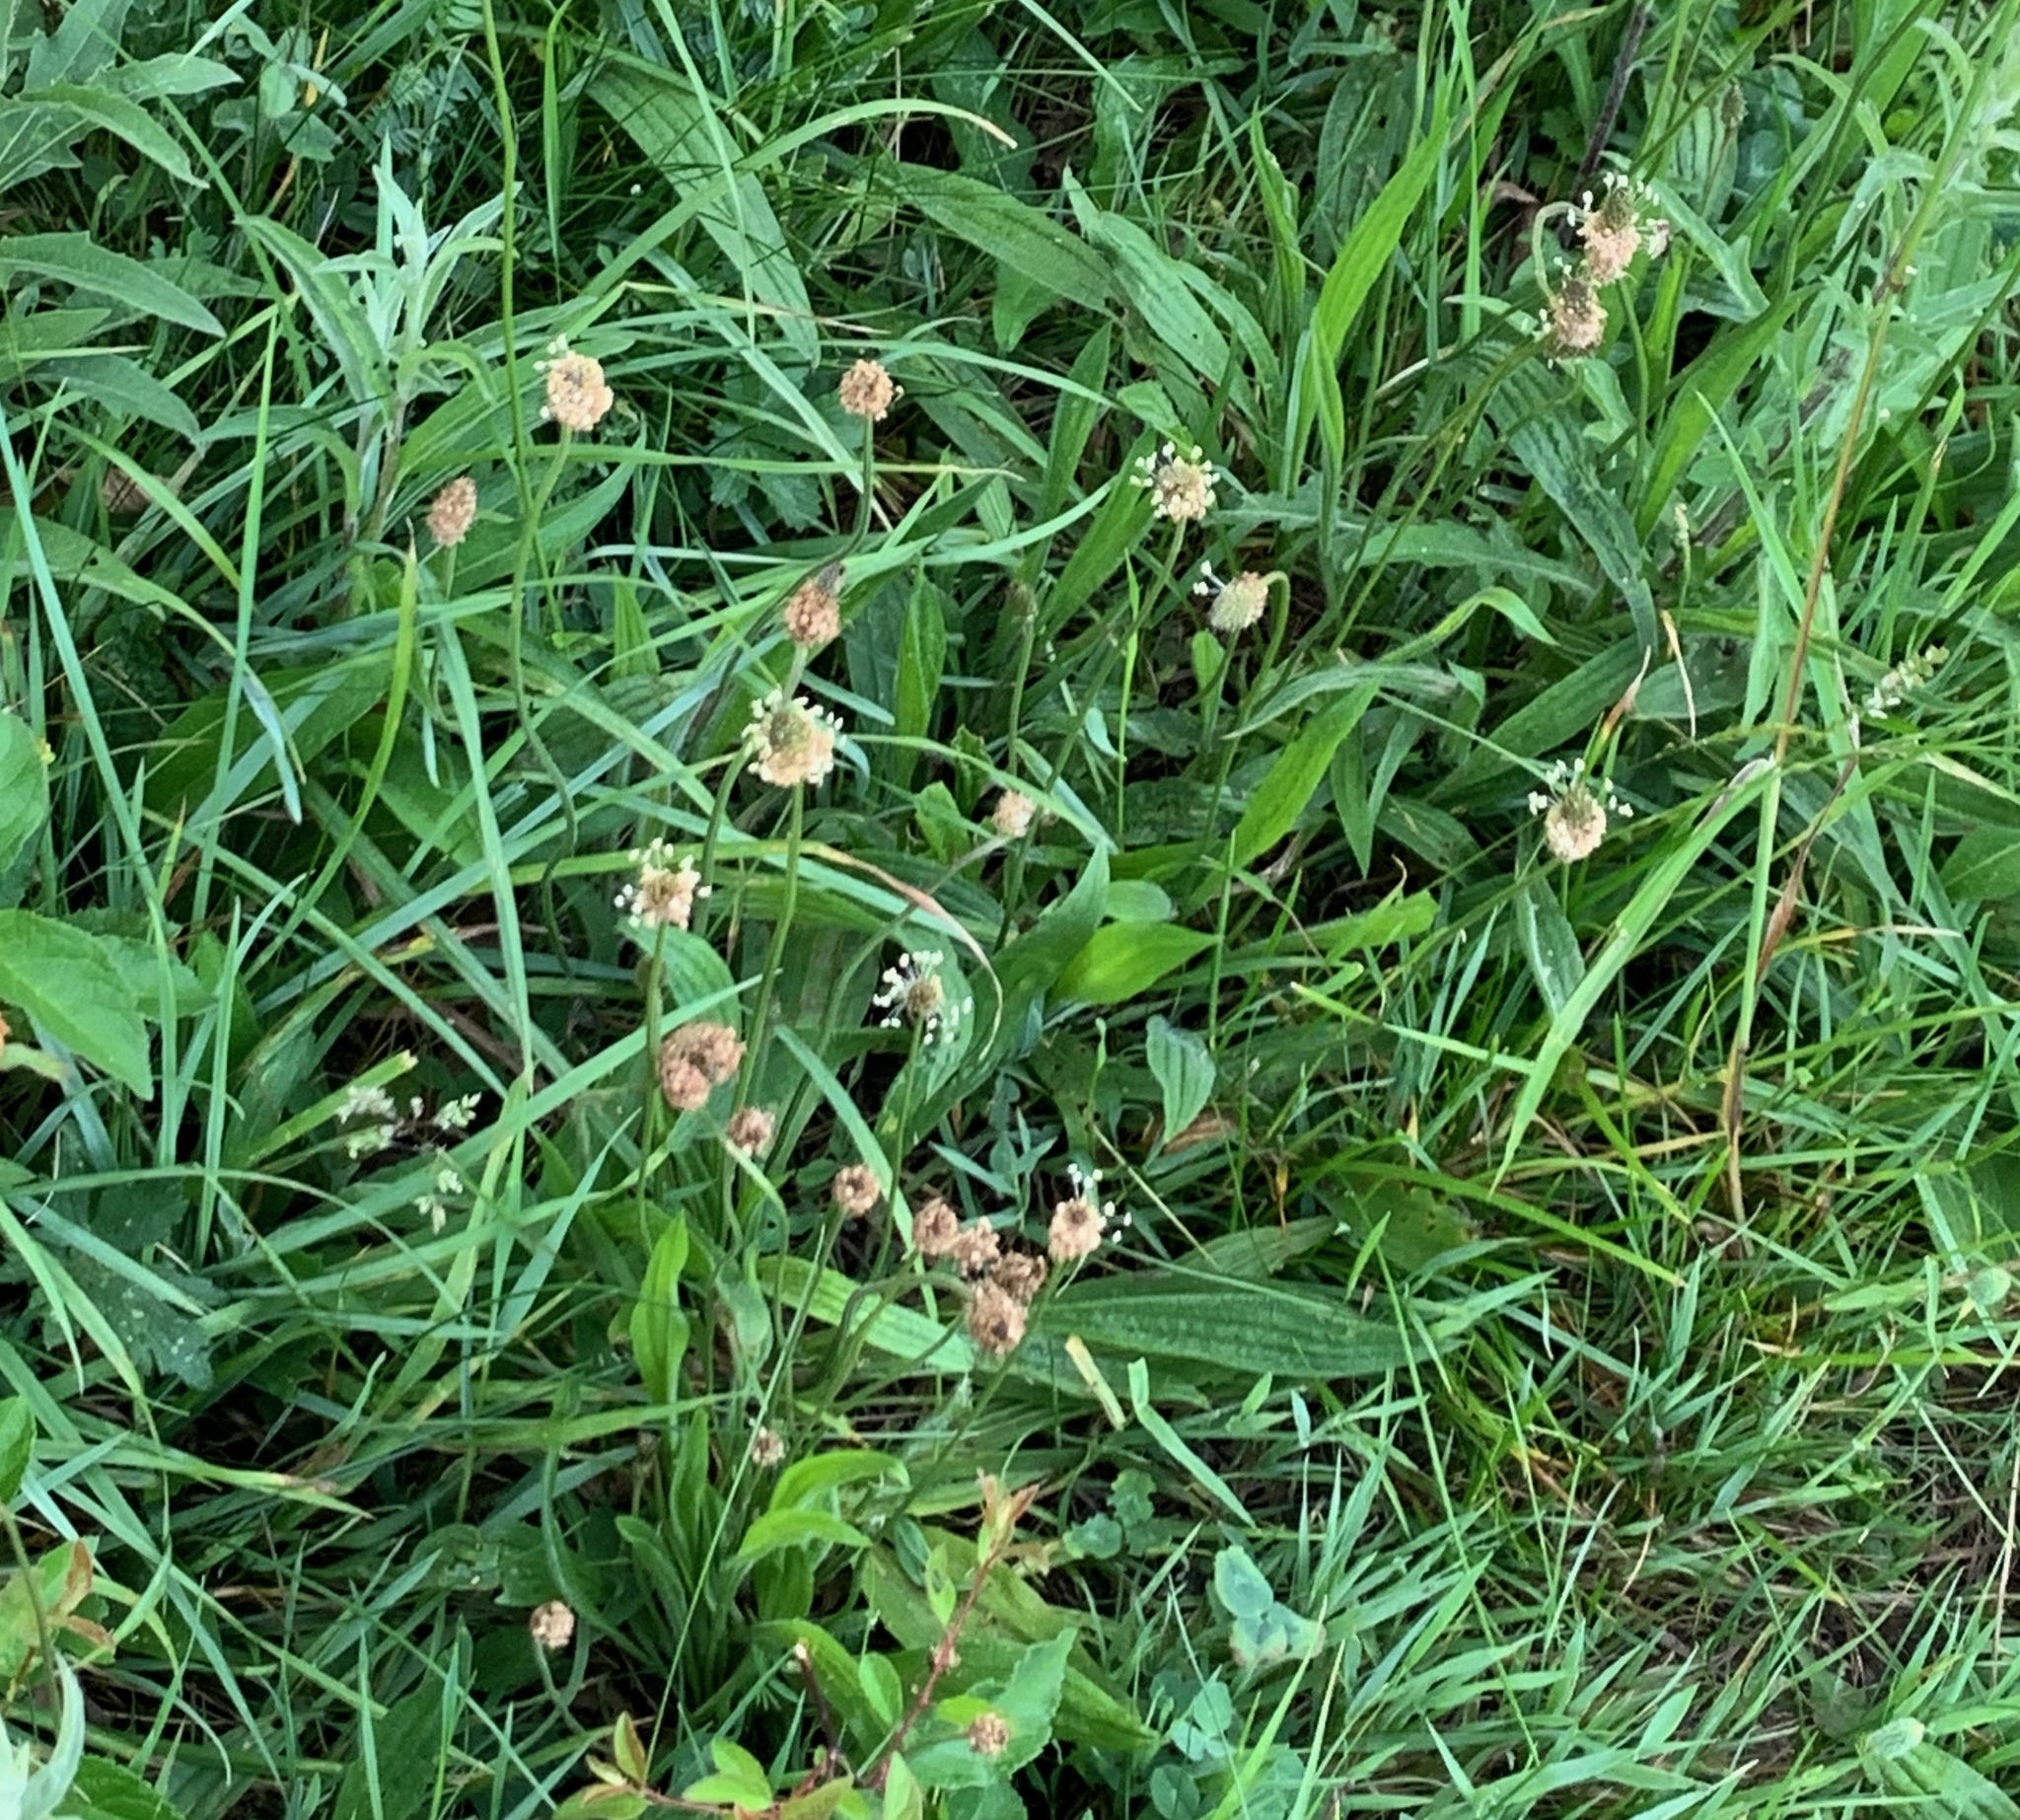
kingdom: Plantae
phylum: Tracheophyta
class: Magnoliopsida
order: Lamiales
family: Plantaginaceae
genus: Plantago
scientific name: Plantago lanceolata
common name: Ribwort plantain
